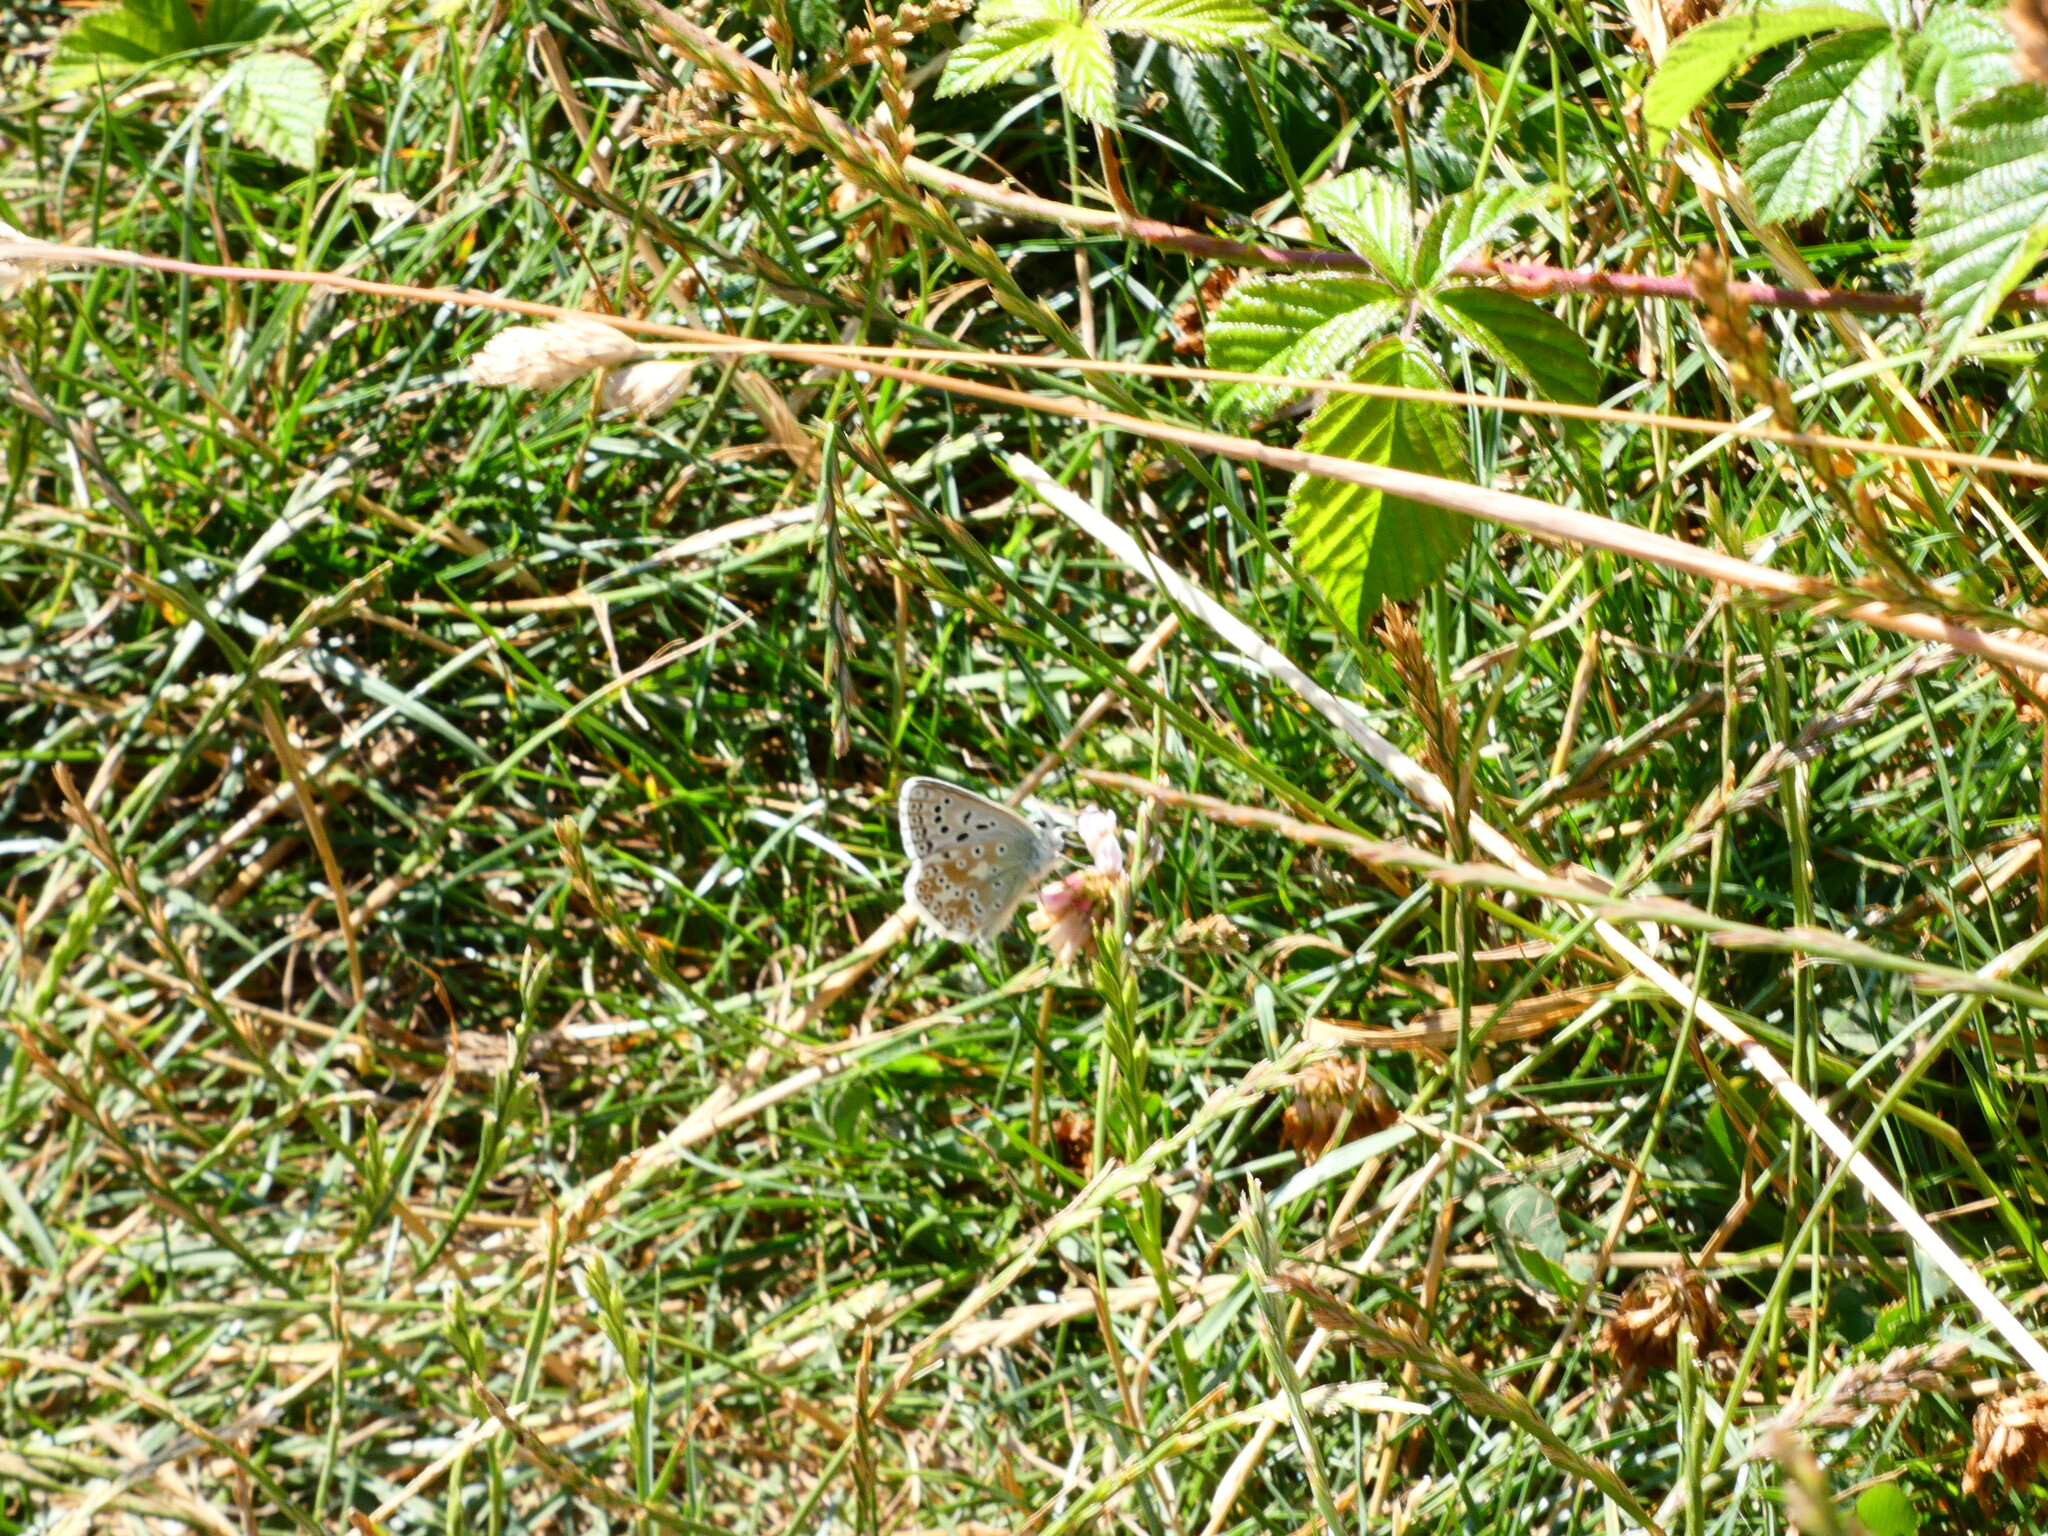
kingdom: Animalia
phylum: Arthropoda
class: Insecta
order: Lepidoptera
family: Lycaenidae
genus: Lysandra
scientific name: Lysandra coridon
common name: Chalkhill blue
